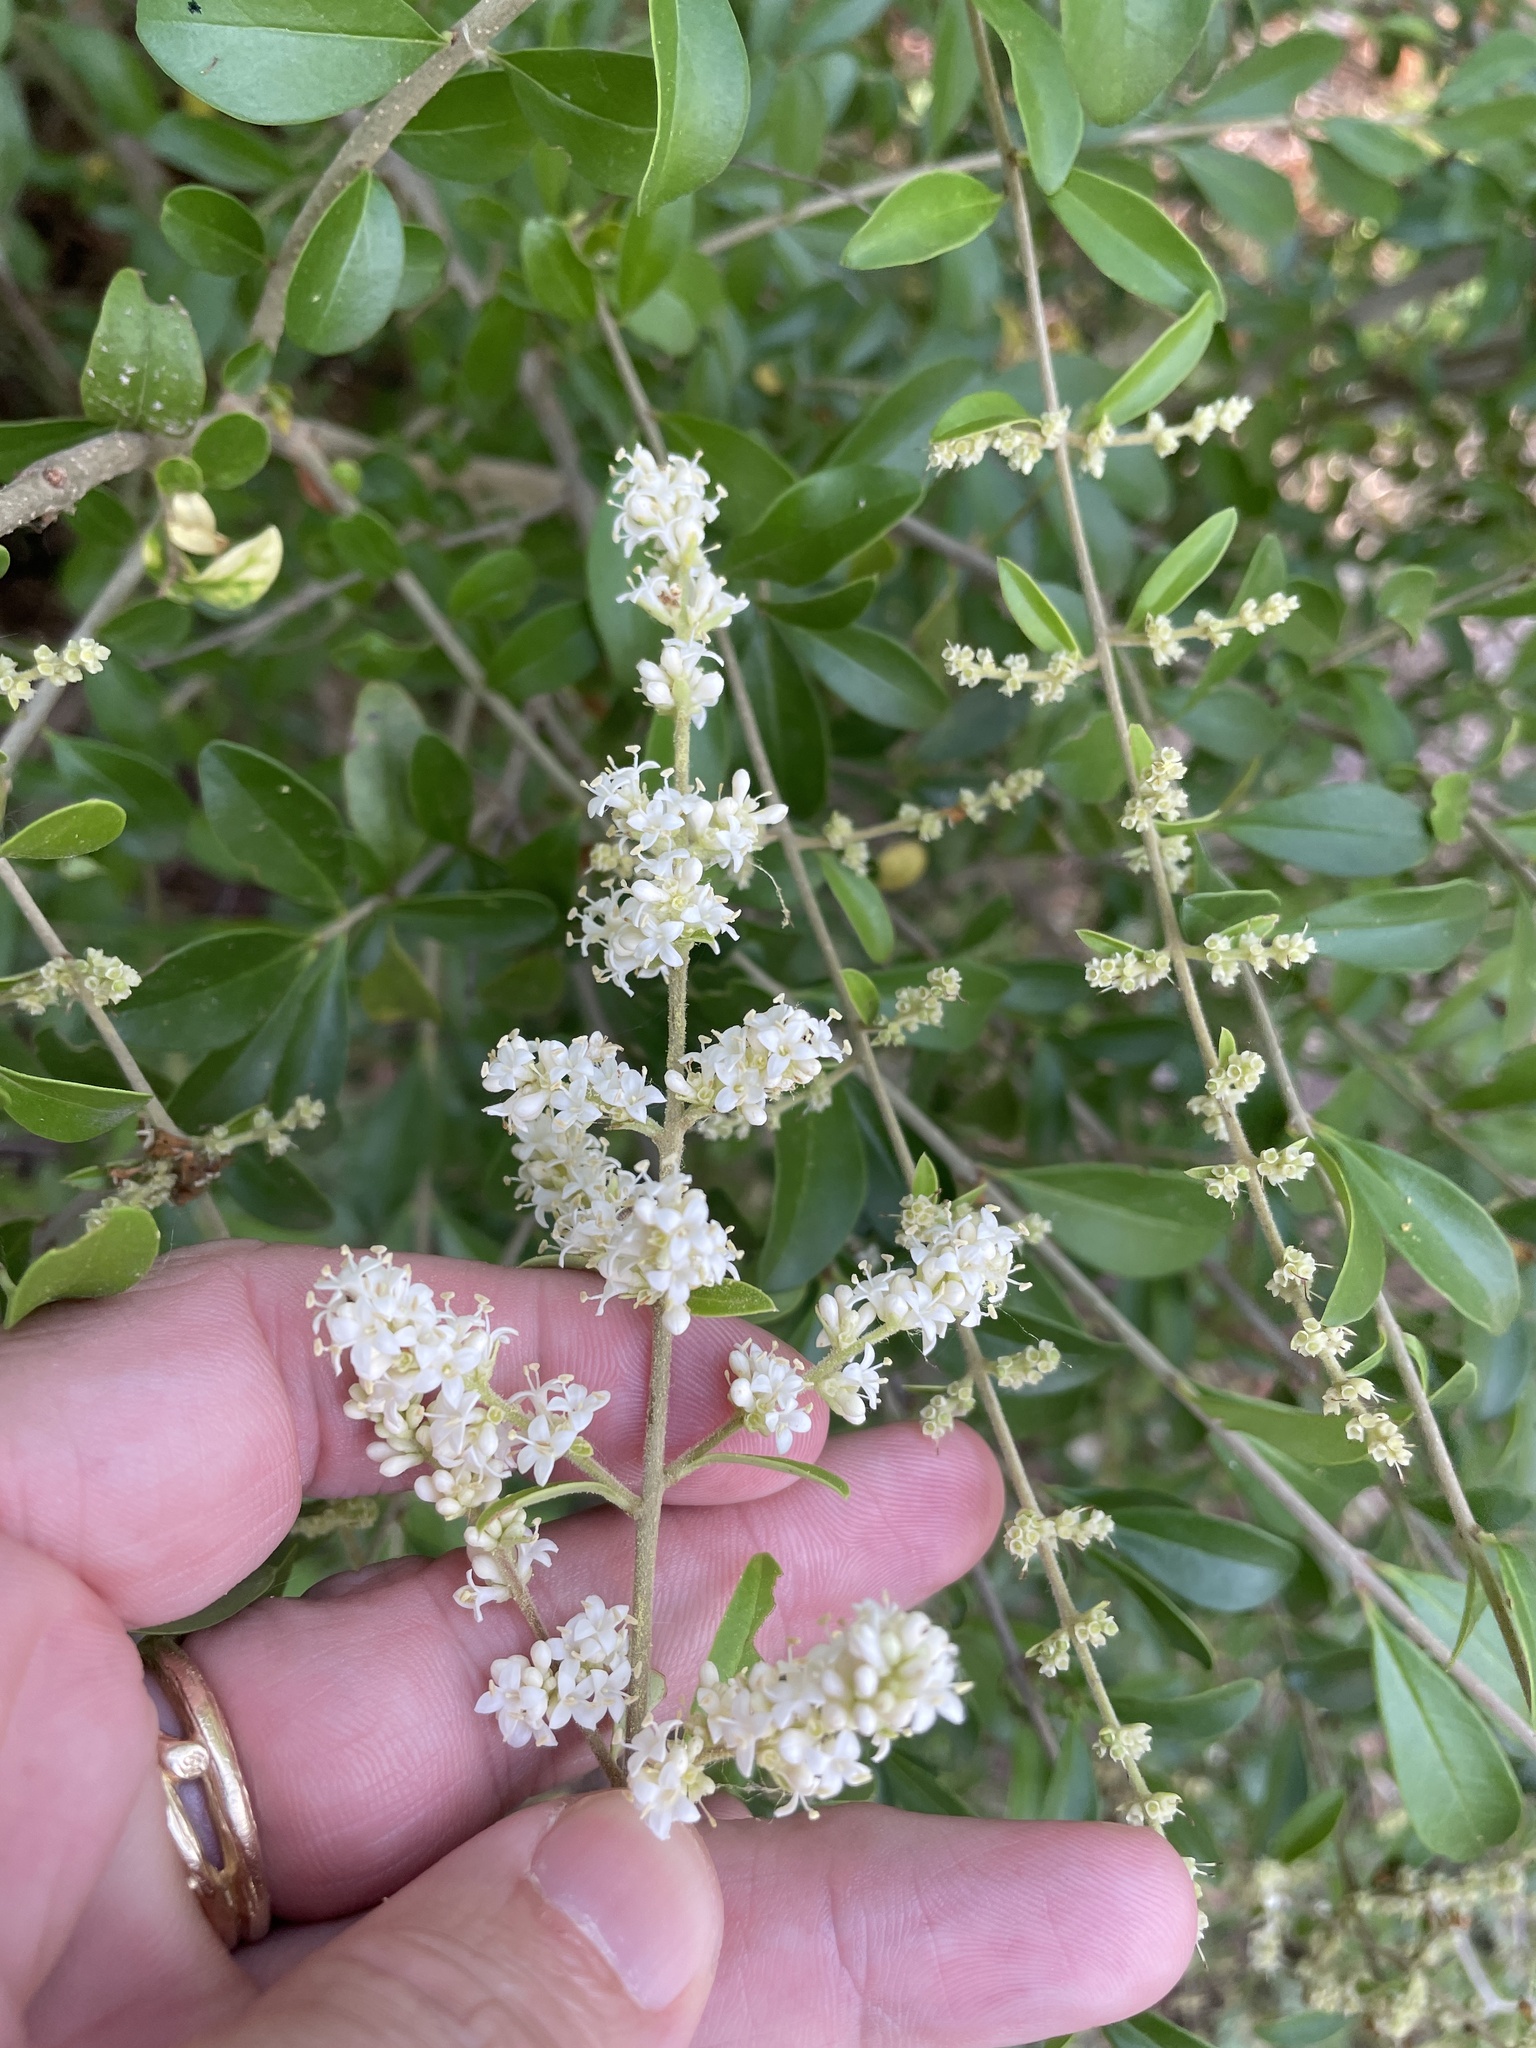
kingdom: Plantae
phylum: Tracheophyta
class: Magnoliopsida
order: Lamiales
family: Oleaceae
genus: Ligustrum
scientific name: Ligustrum quihoui
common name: Waxyleaf privet
